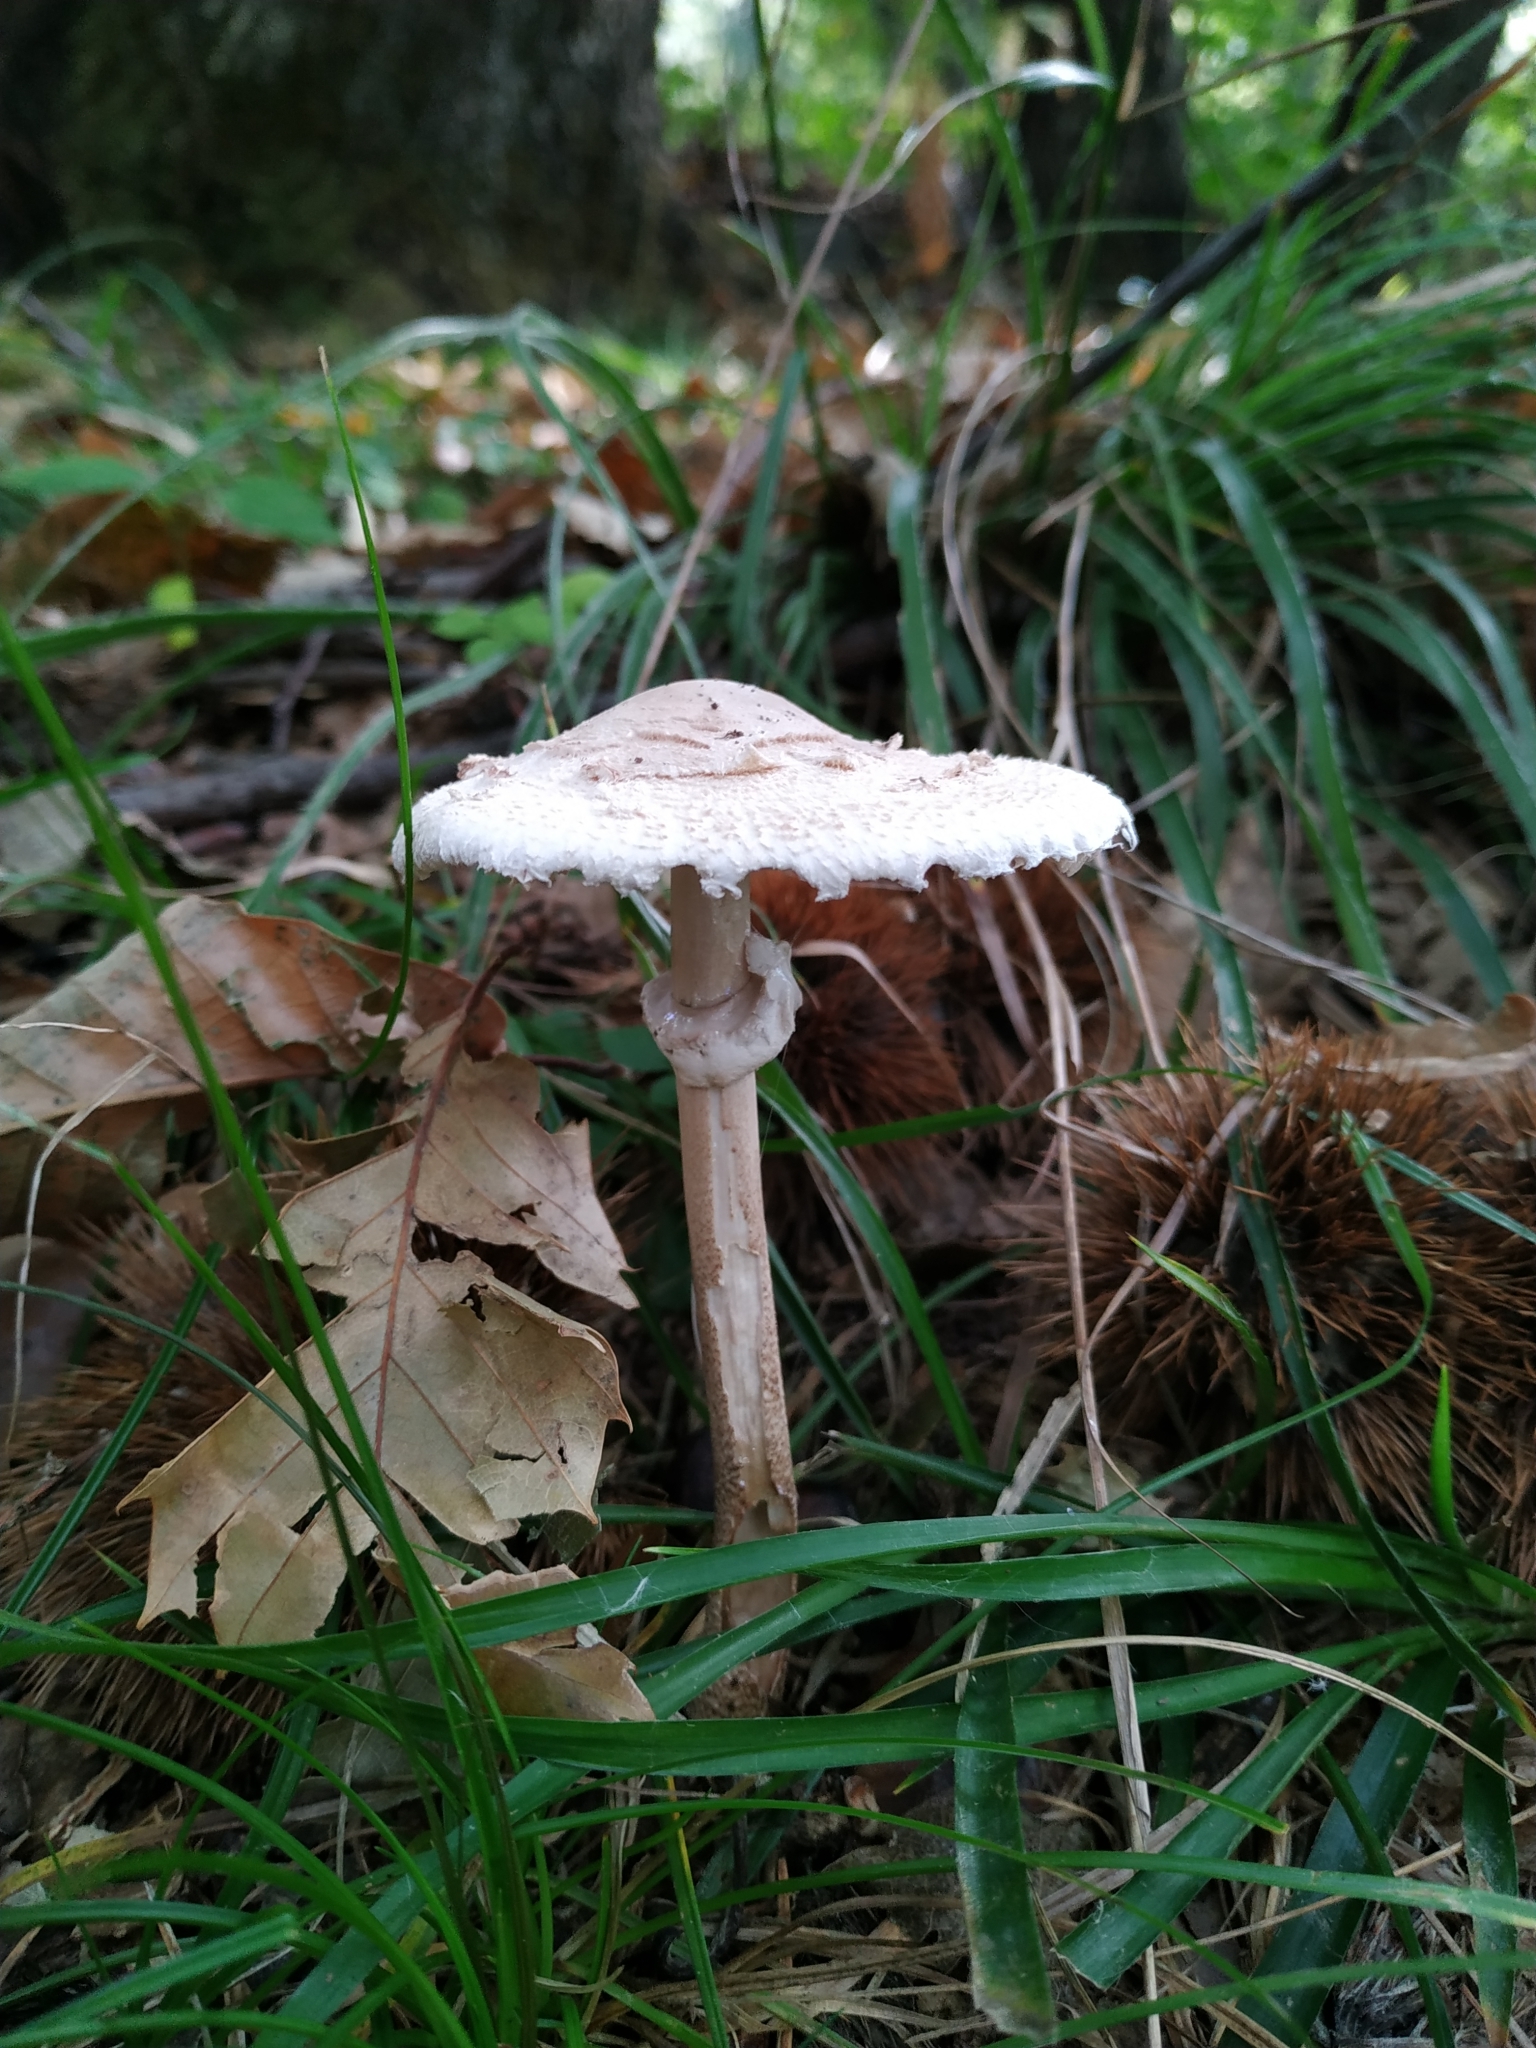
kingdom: Fungi
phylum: Basidiomycota
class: Agaricomycetes
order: Agaricales
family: Agaricaceae
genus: Macrolepiota
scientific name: Macrolepiota procera
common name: Parasol
